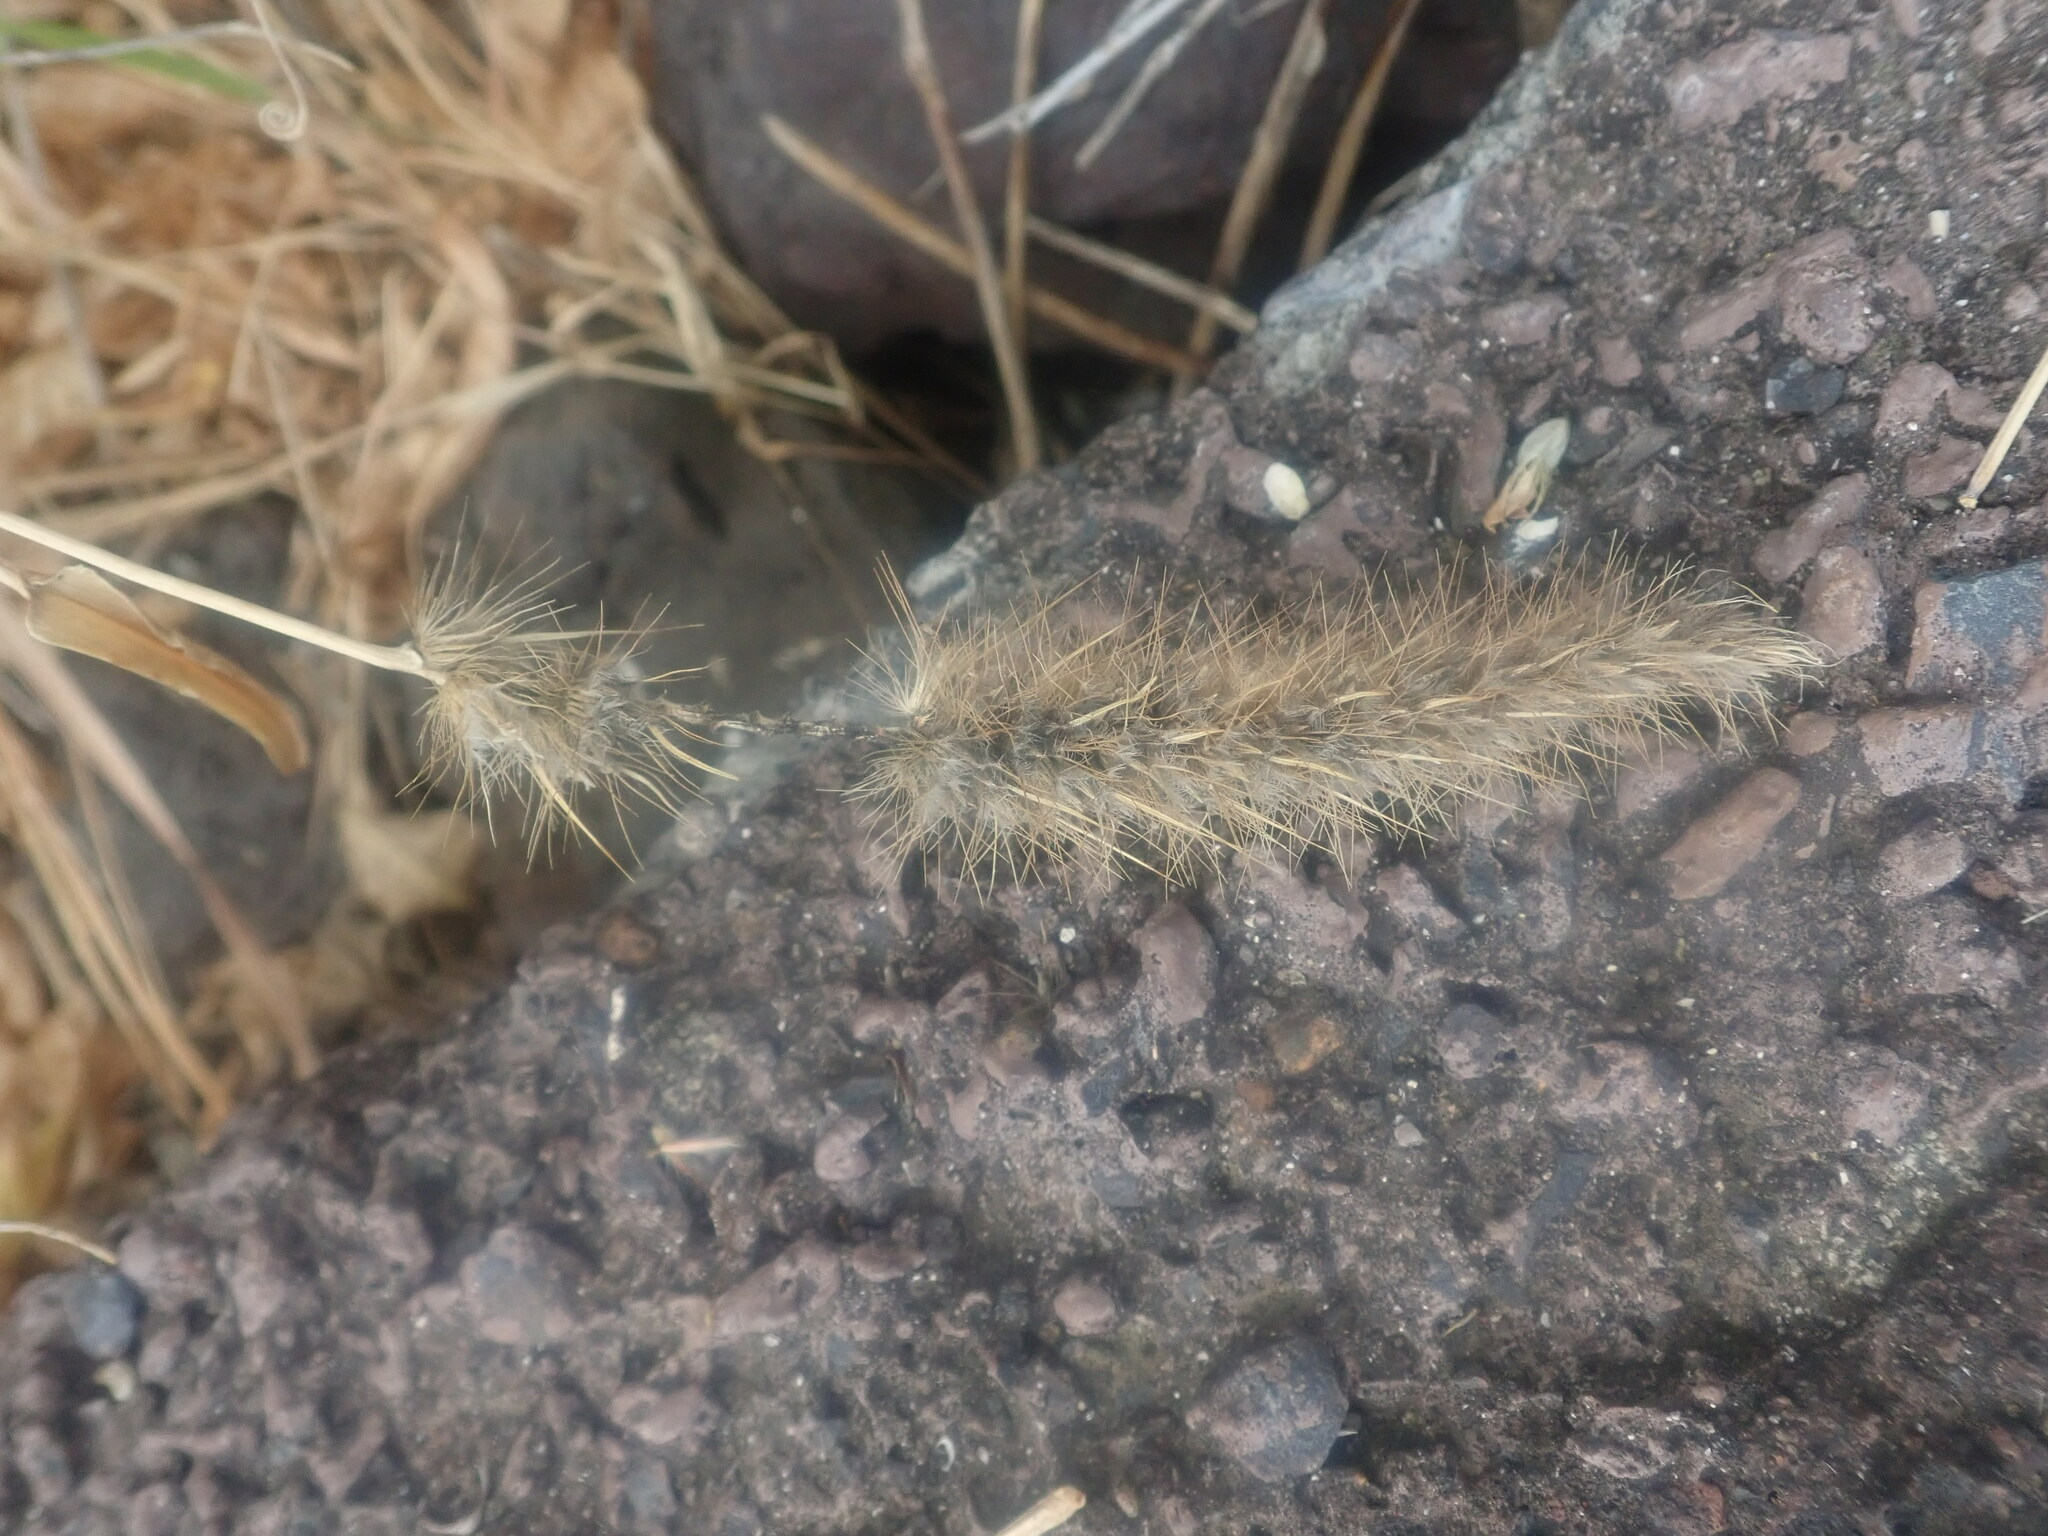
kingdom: Plantae
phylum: Tracheophyta
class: Liliopsida
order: Poales
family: Poaceae
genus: Cenchrus
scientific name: Cenchrus ciliaris
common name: Buffelgrass
